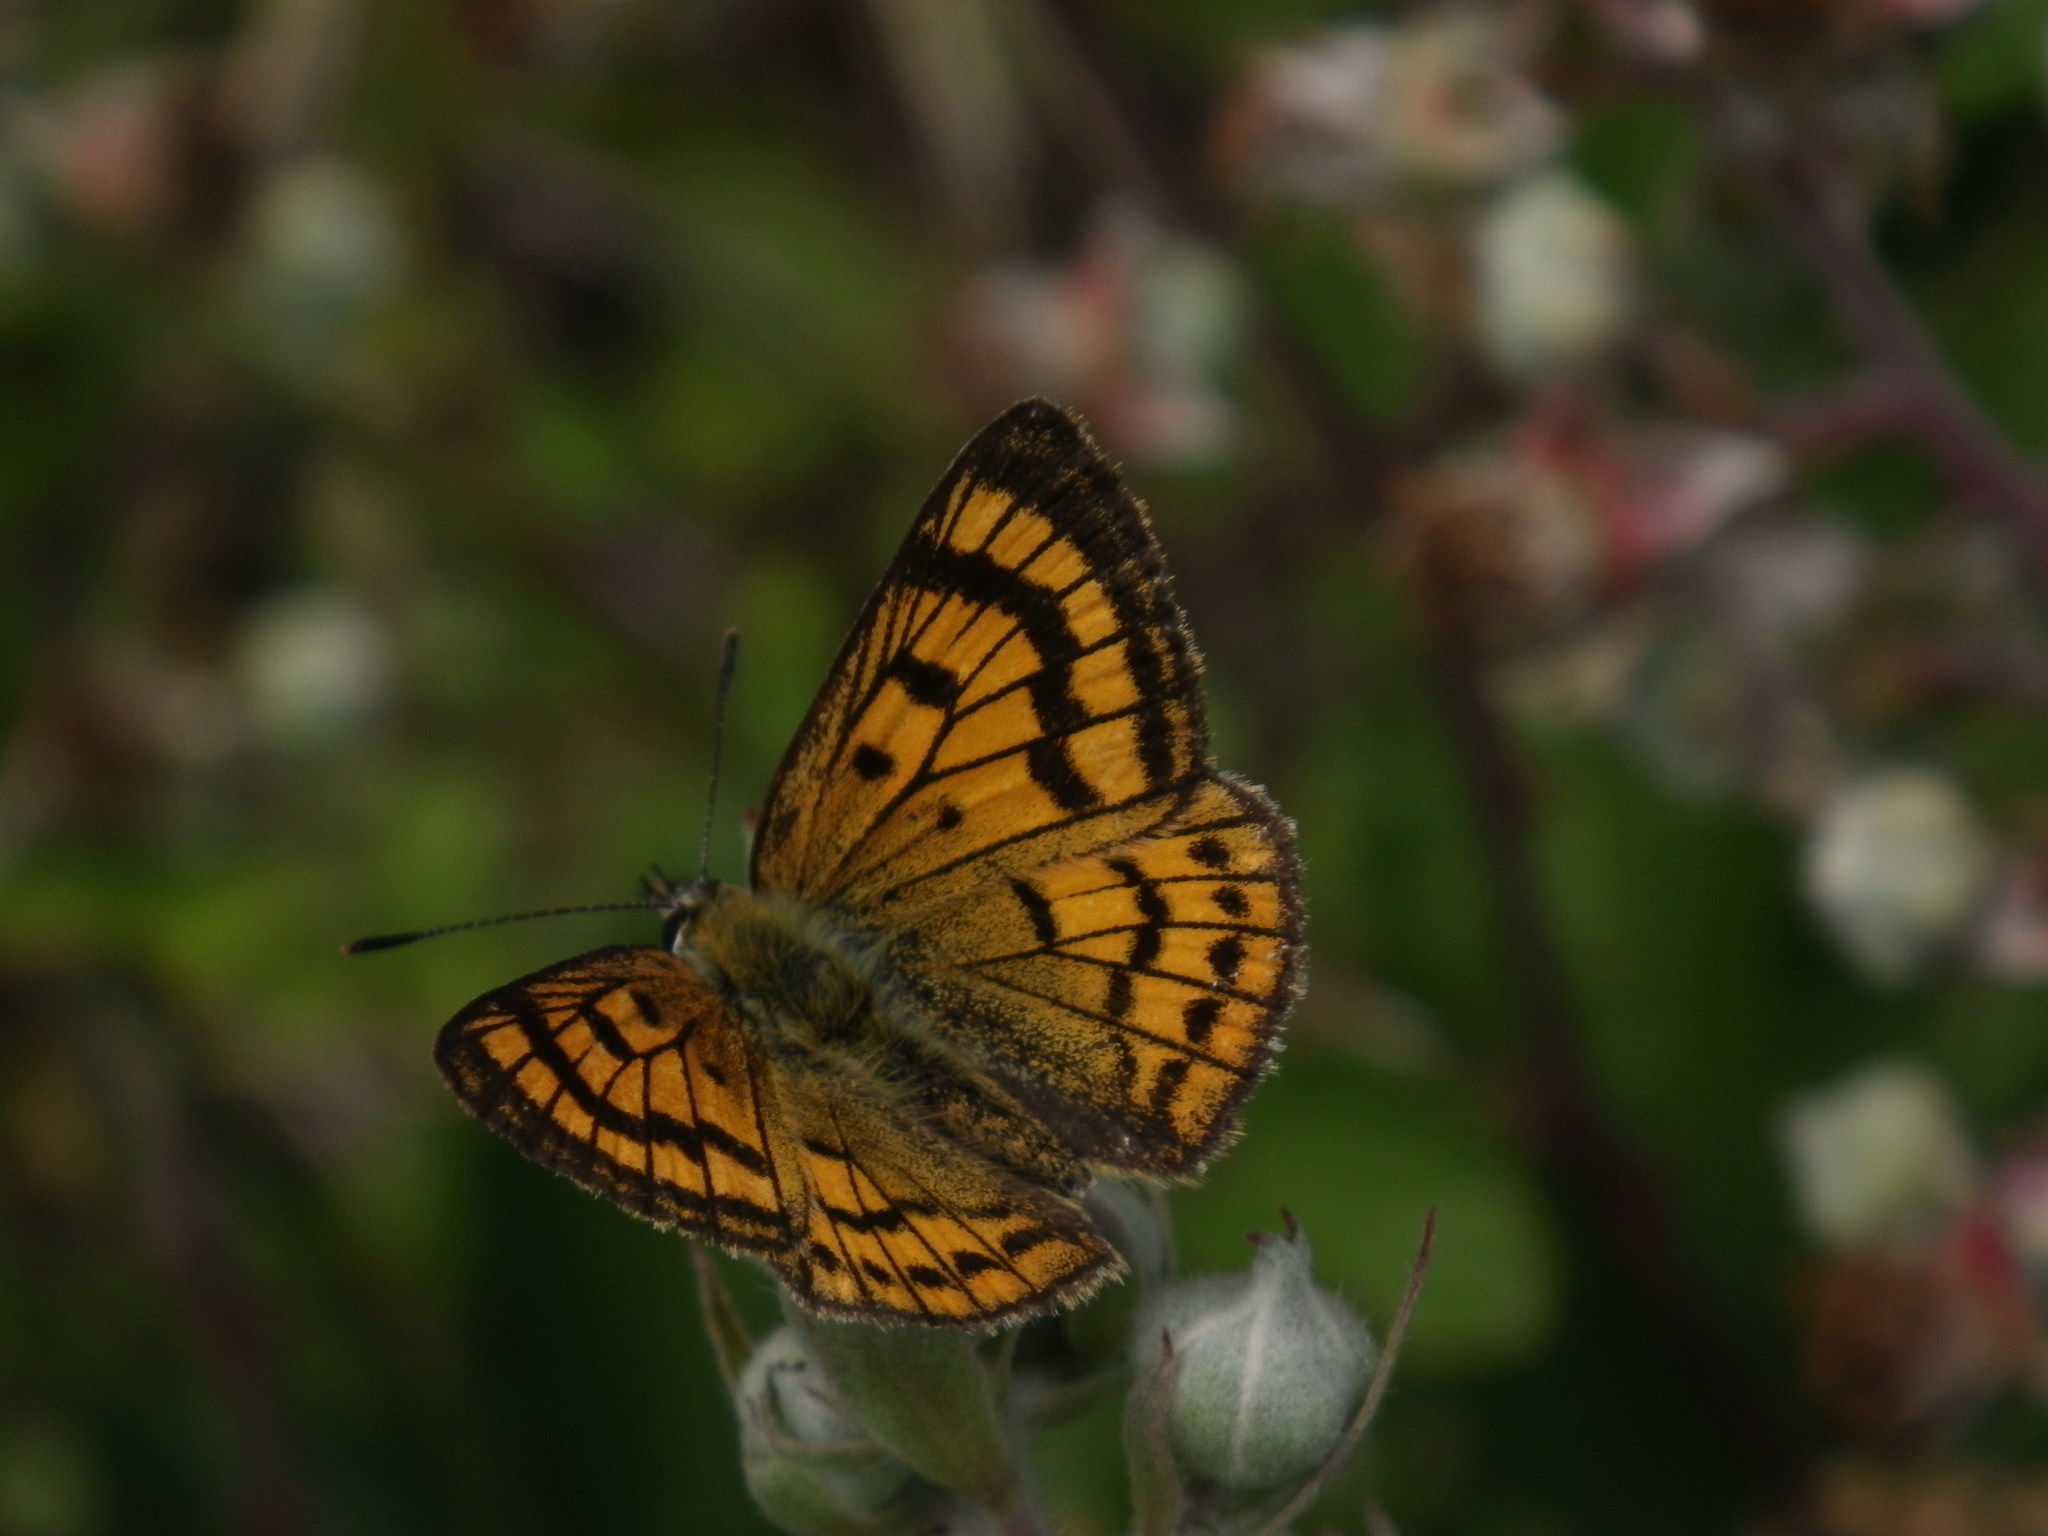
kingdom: Animalia
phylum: Arthropoda
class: Insecta
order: Lepidoptera
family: Lycaenidae
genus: Lycaena
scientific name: Lycaena salustius
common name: North island coastal copper
